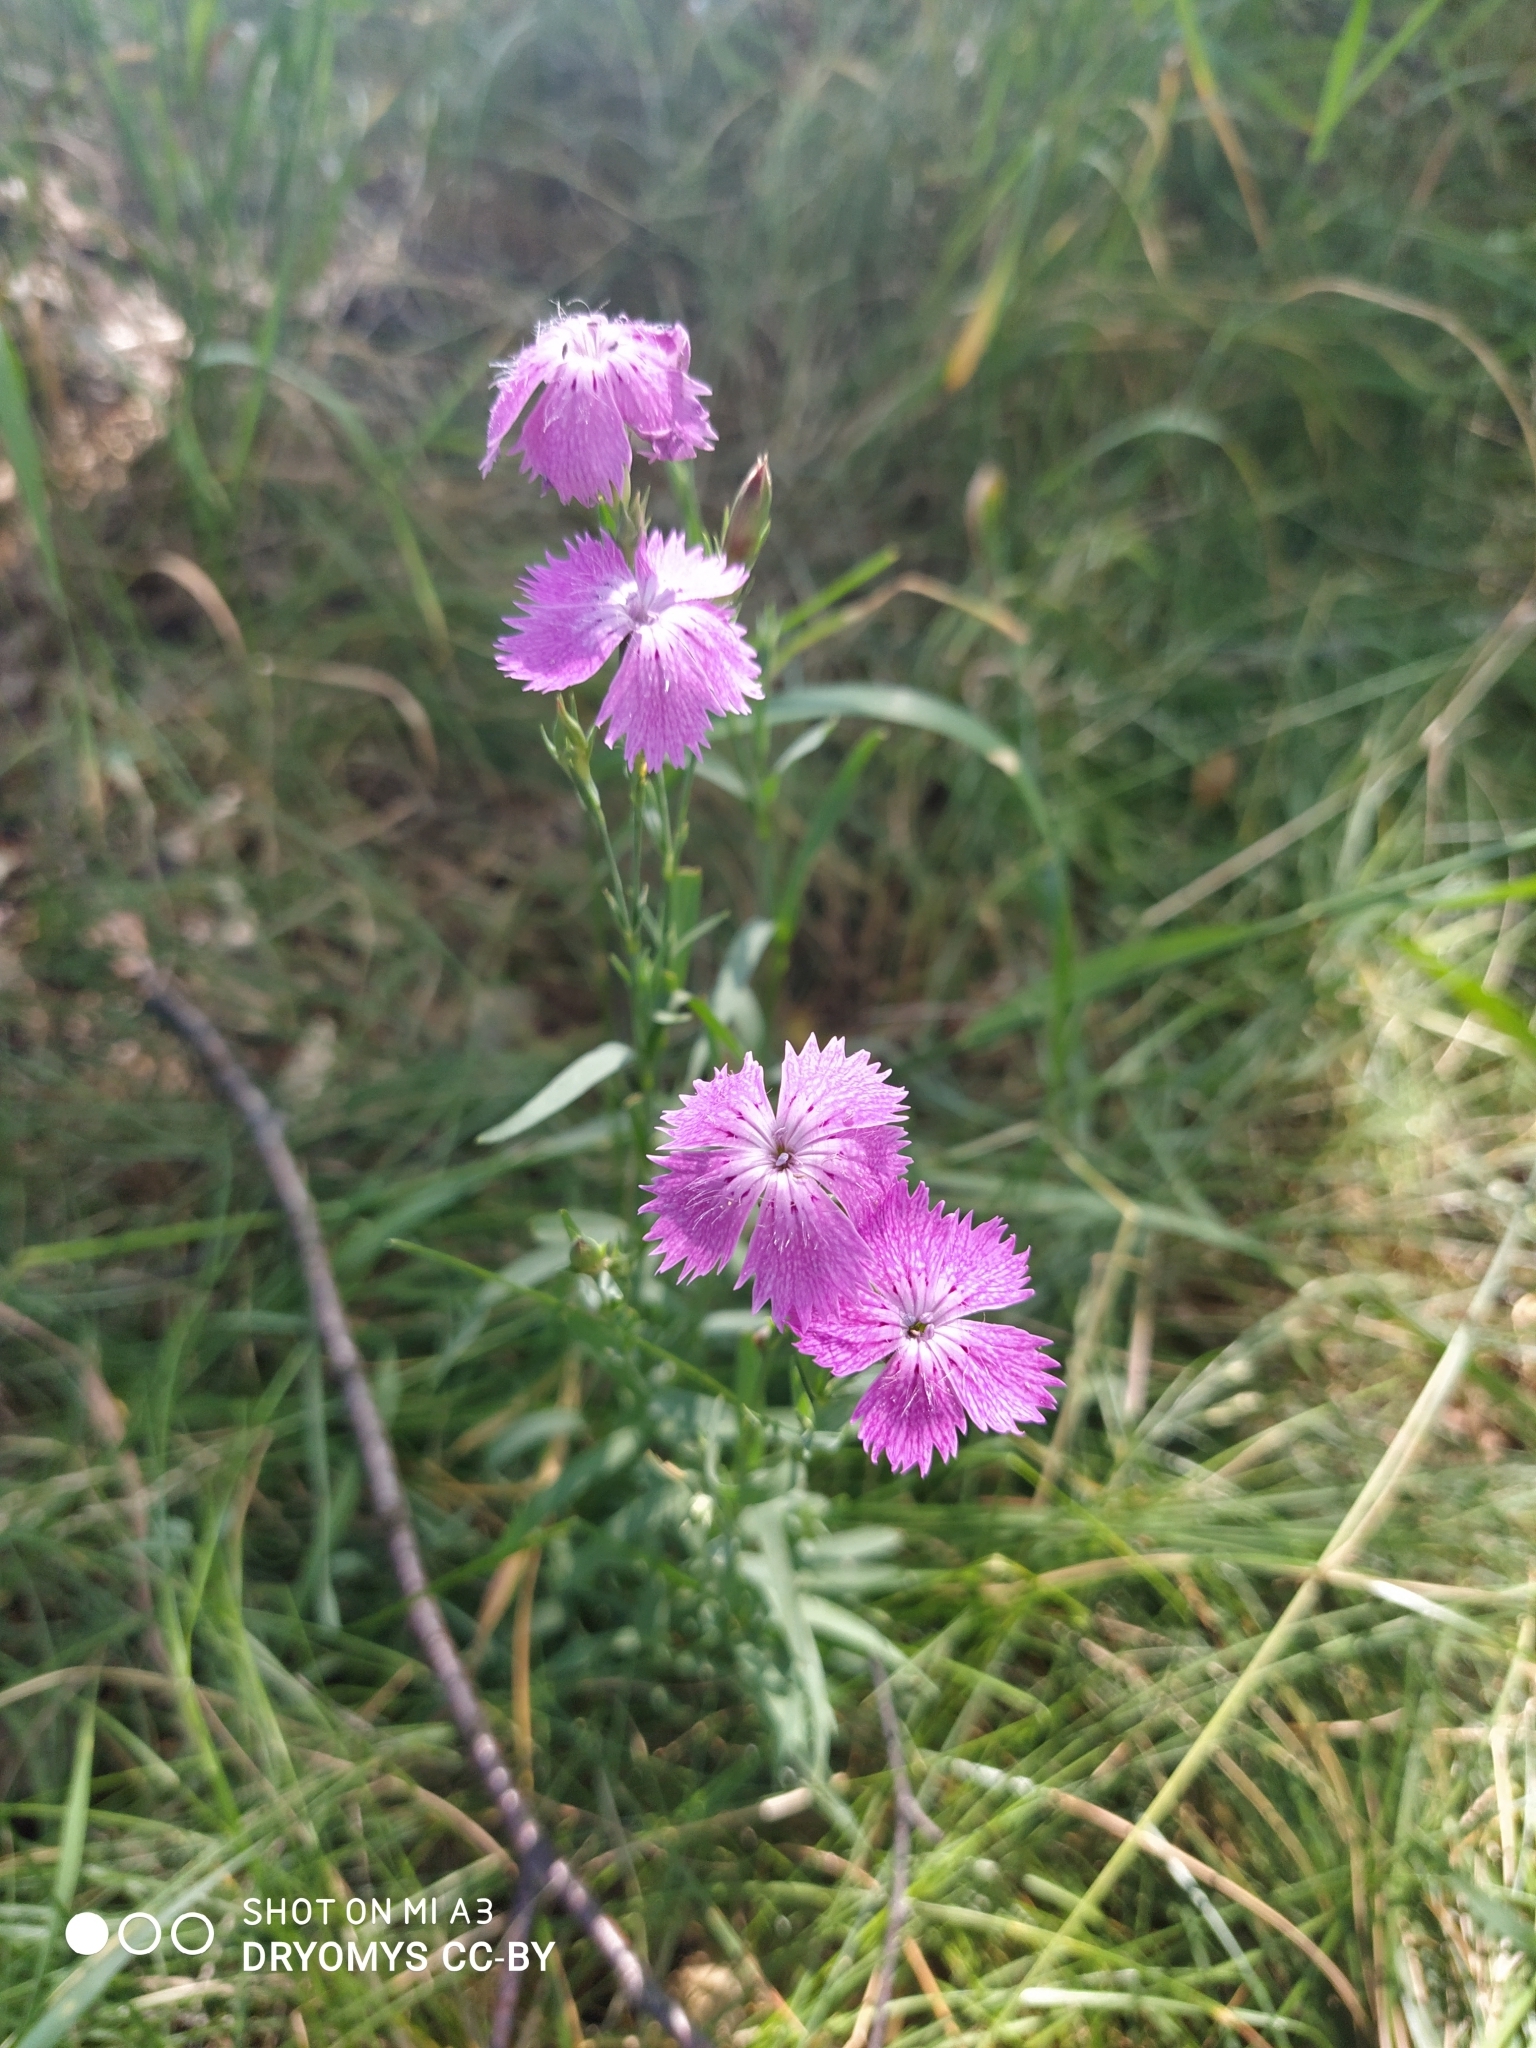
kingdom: Plantae
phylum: Tracheophyta
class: Magnoliopsida
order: Caryophyllales
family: Caryophyllaceae
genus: Dianthus
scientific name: Dianthus chinensis
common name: Rainbow pink
